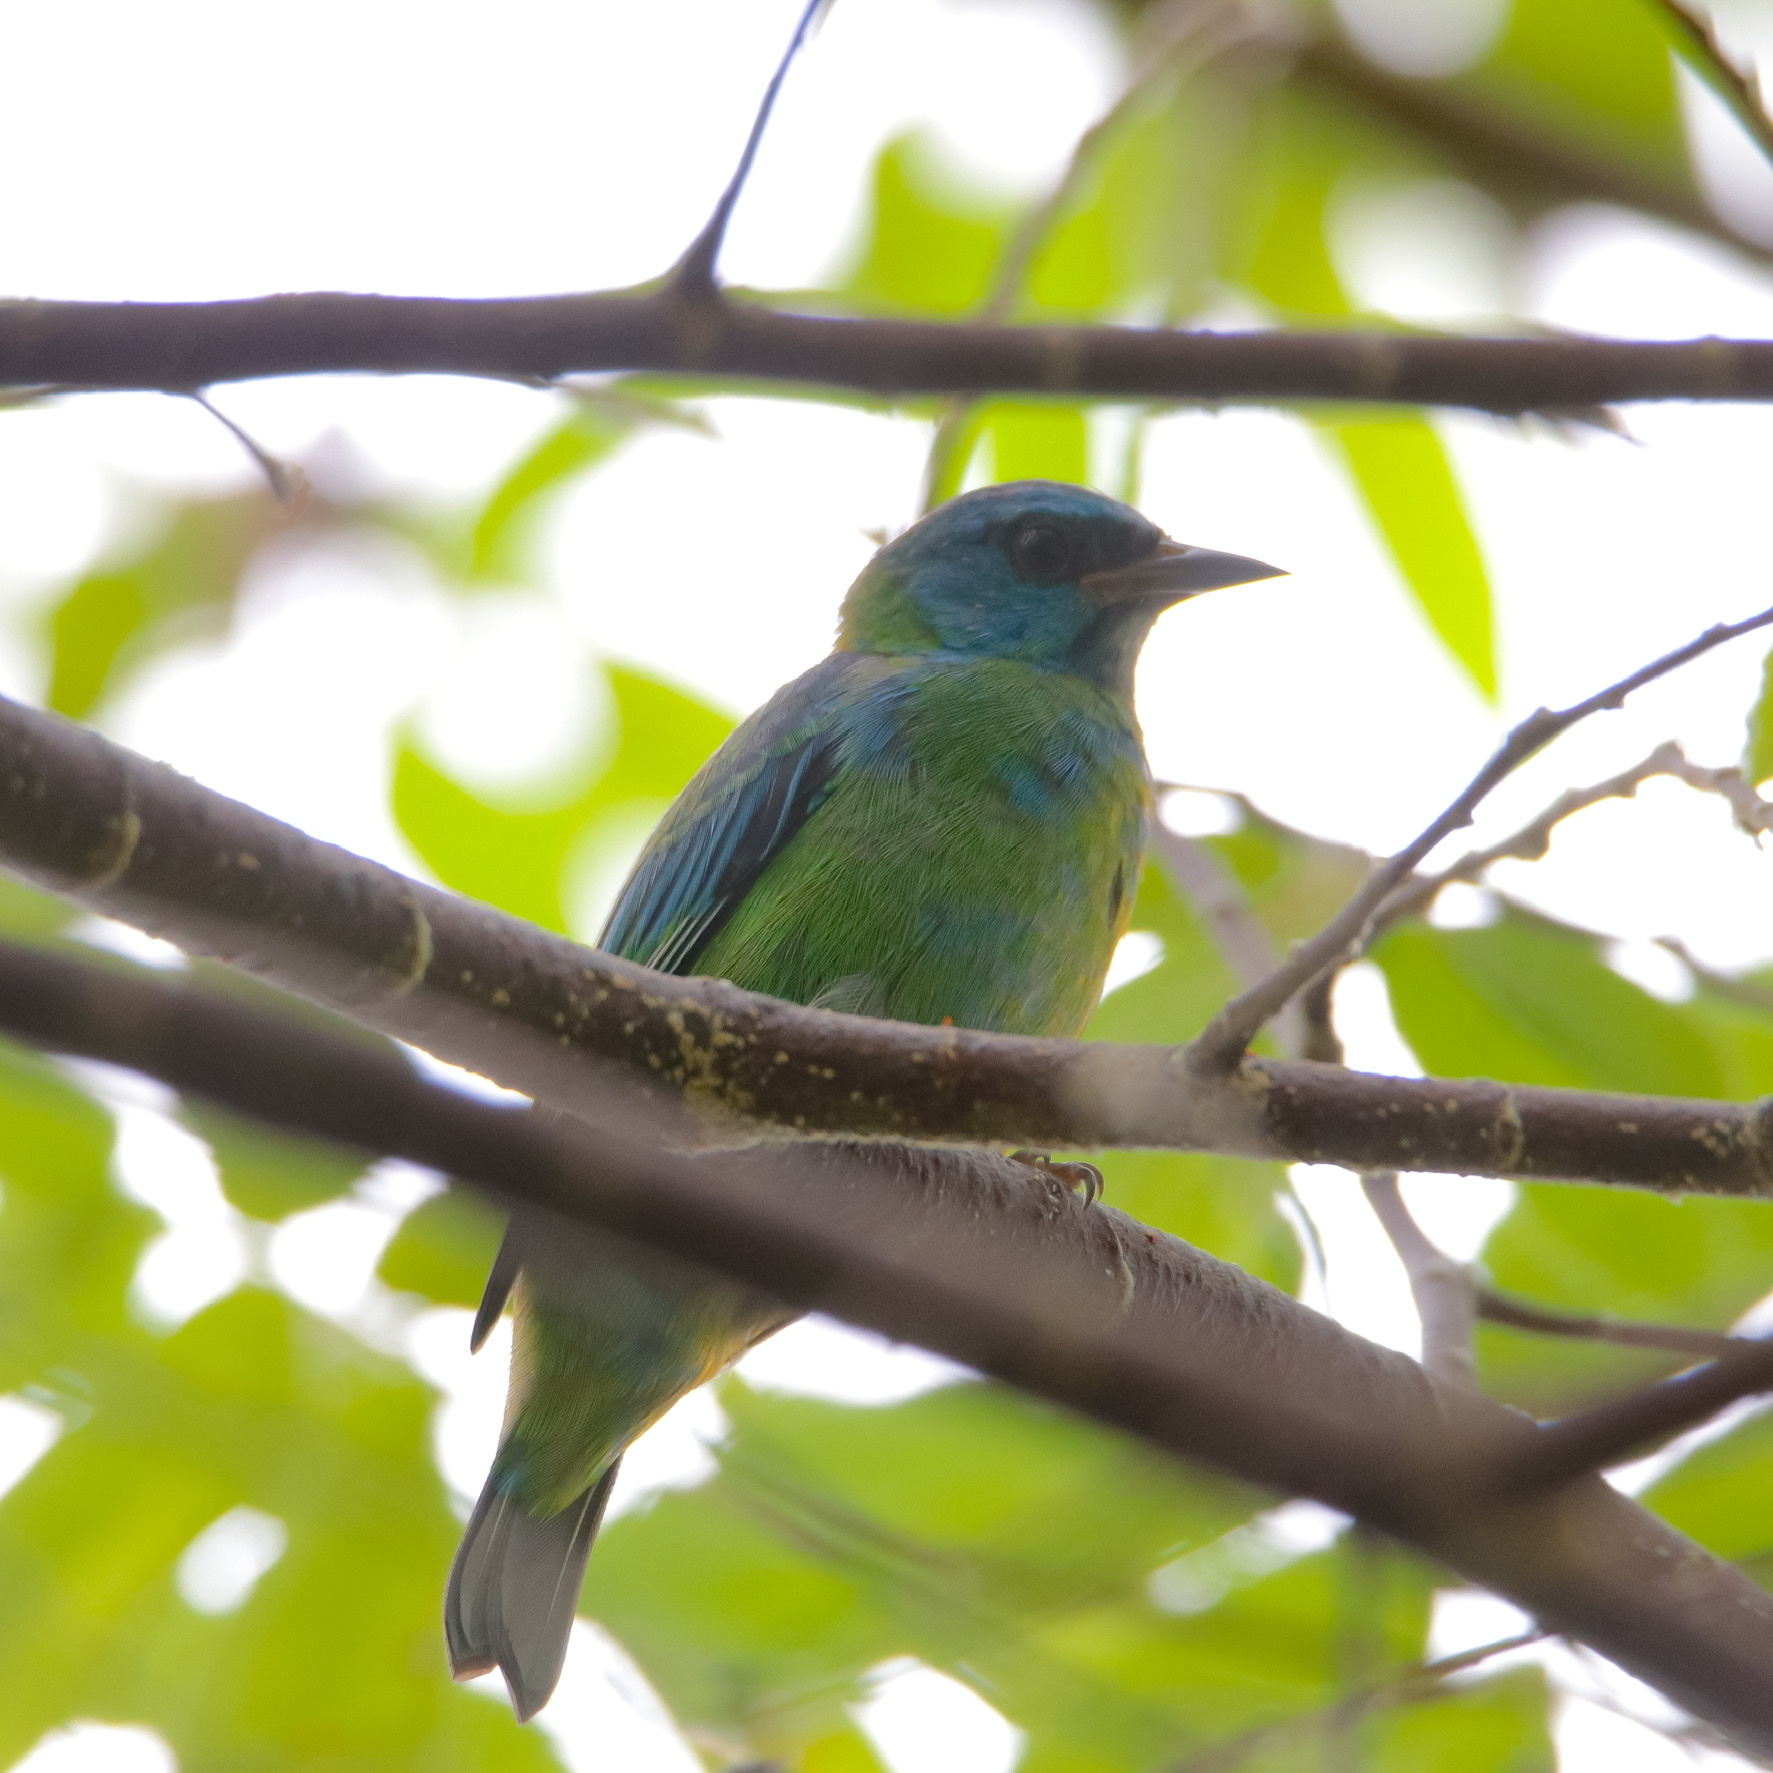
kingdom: Animalia
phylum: Chordata
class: Aves
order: Passeriformes
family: Thraupidae
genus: Dacnis
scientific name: Dacnis cayana
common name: Blue dacnis
